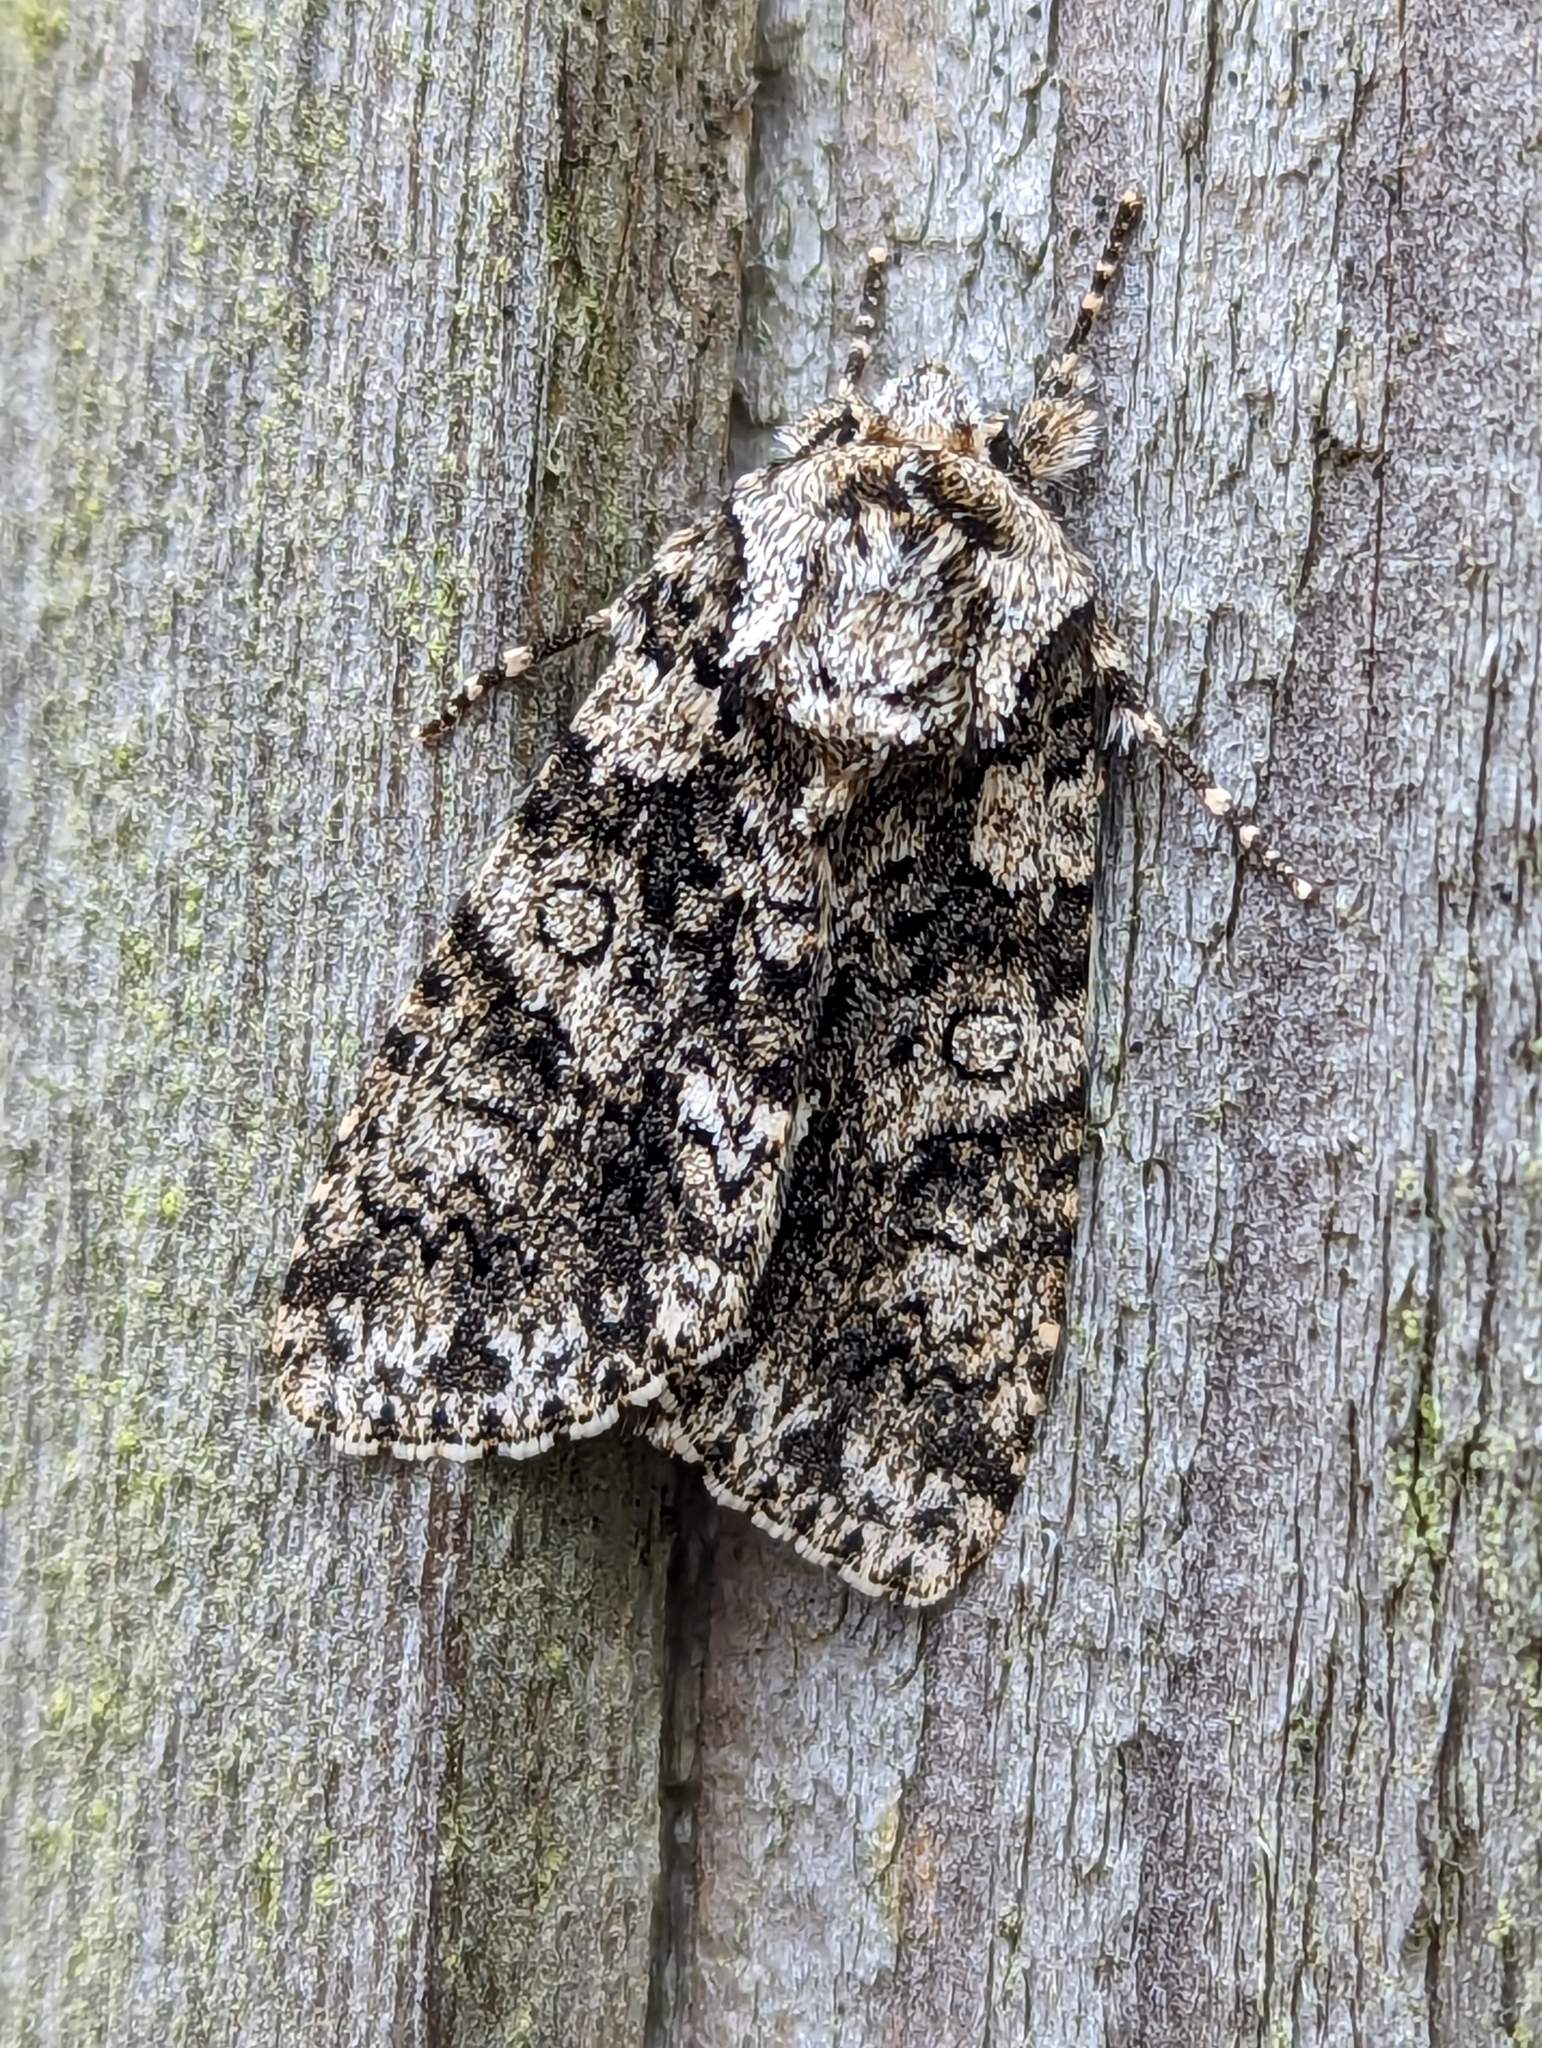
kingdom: Animalia
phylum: Arthropoda
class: Insecta
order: Lepidoptera
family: Noctuidae
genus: Acronicta
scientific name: Acronicta rumicis
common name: Knot grass
